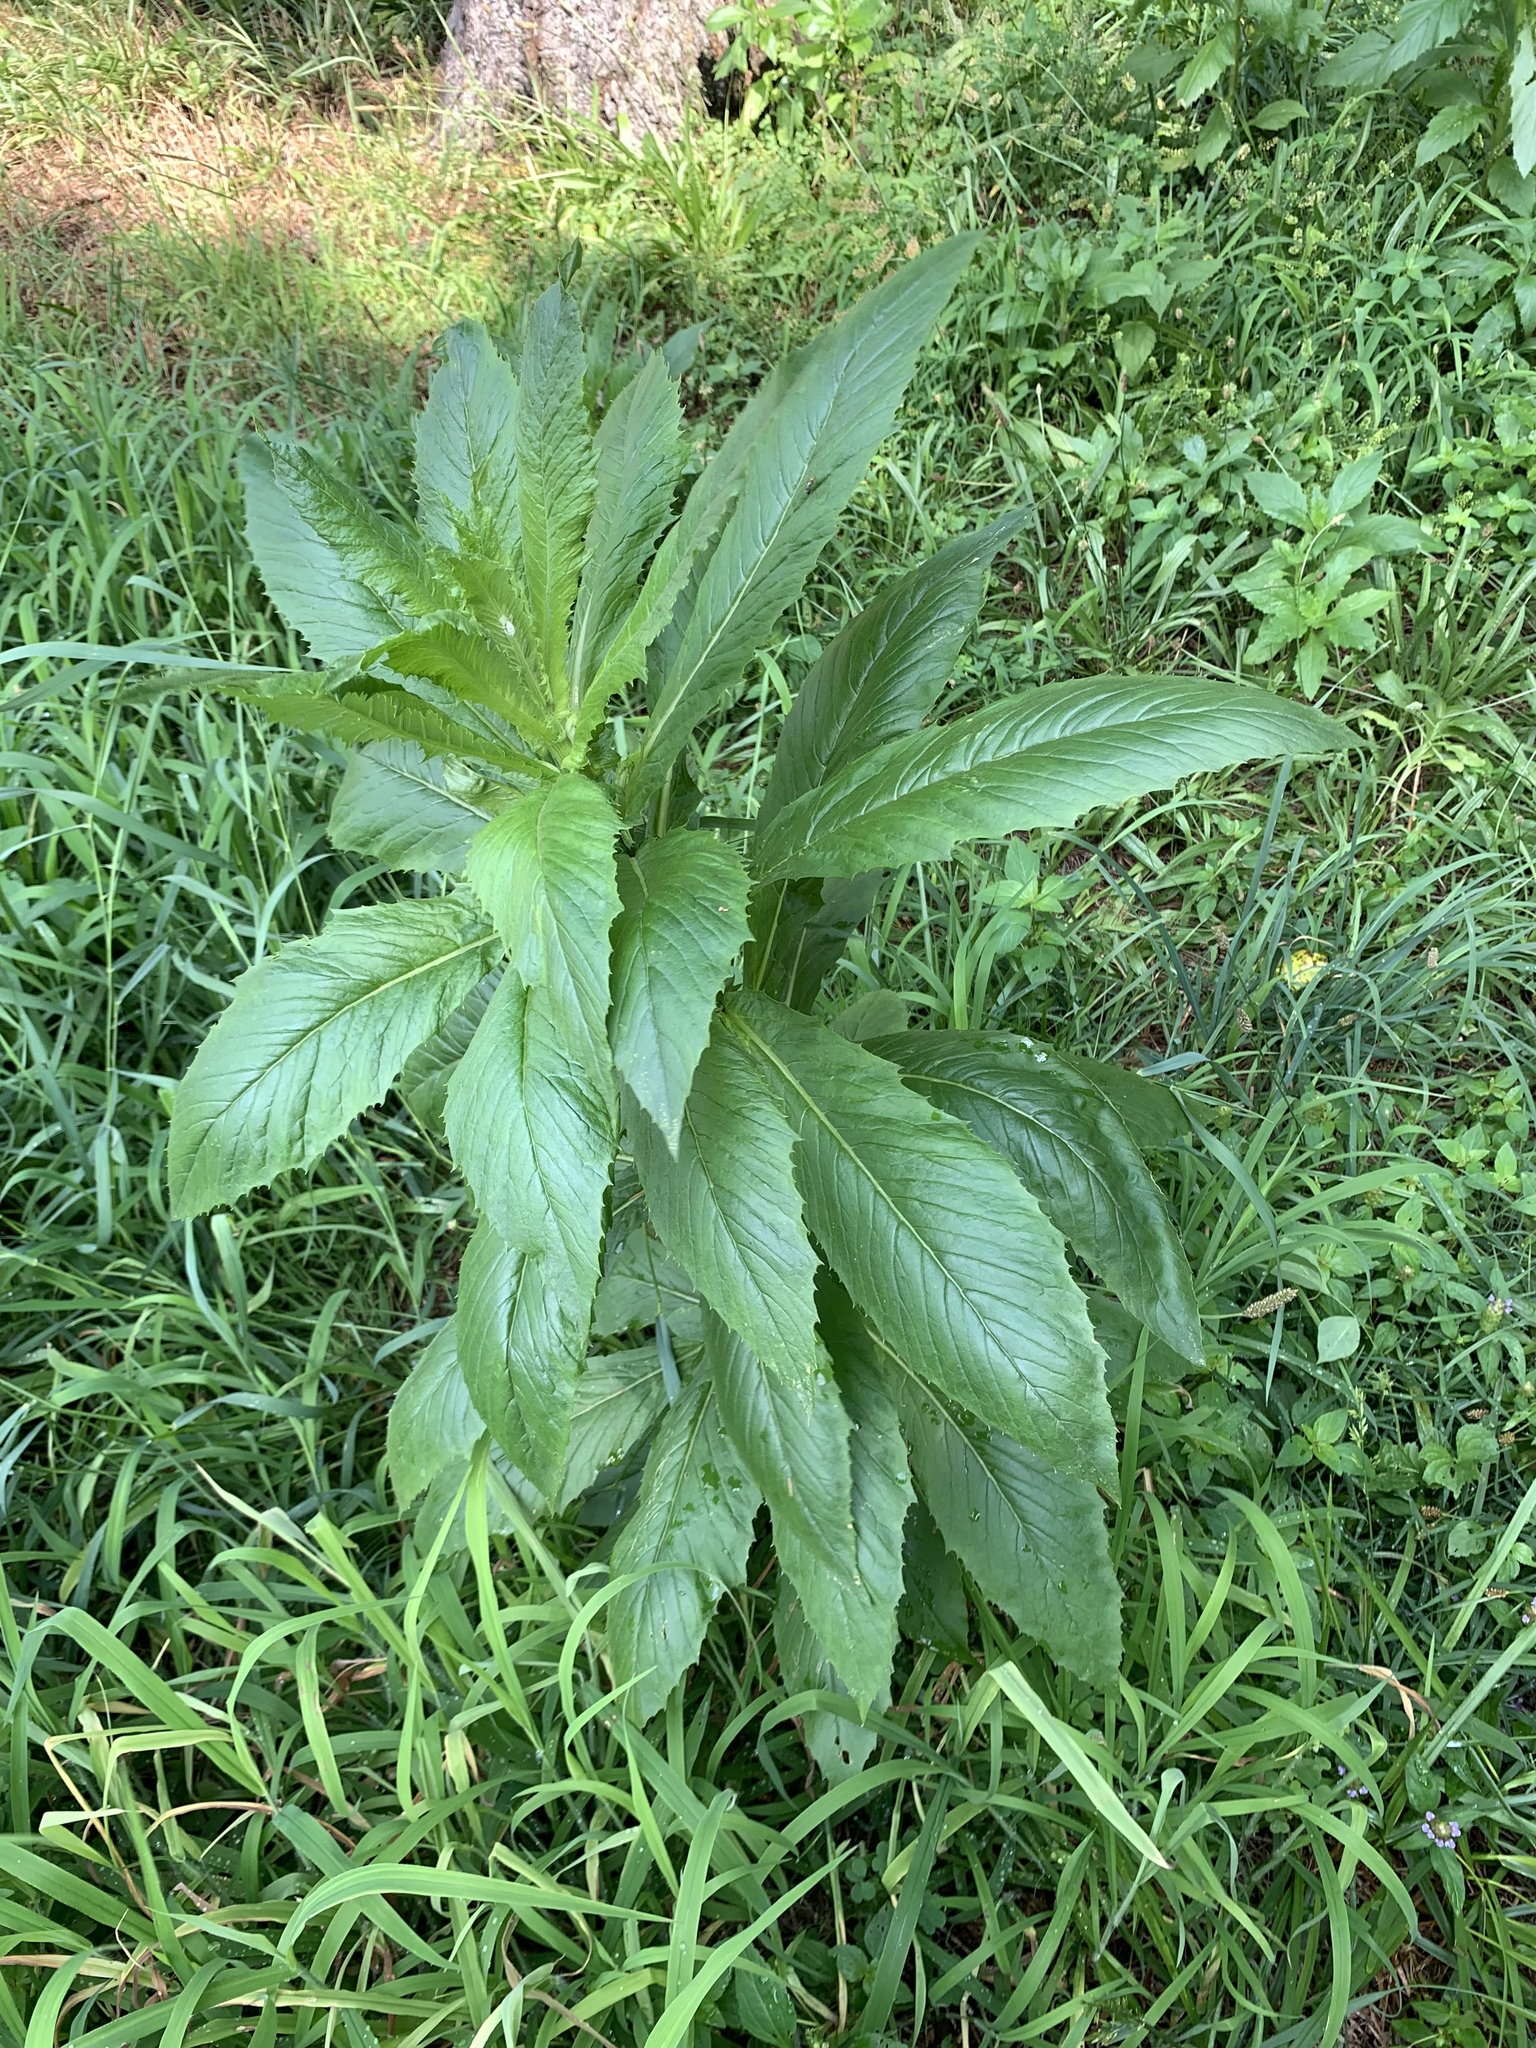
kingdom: Plantae
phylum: Tracheophyta
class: Magnoliopsida
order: Asterales
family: Asteraceae
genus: Erechtites
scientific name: Erechtites hieraciifolius
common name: American burnweed
